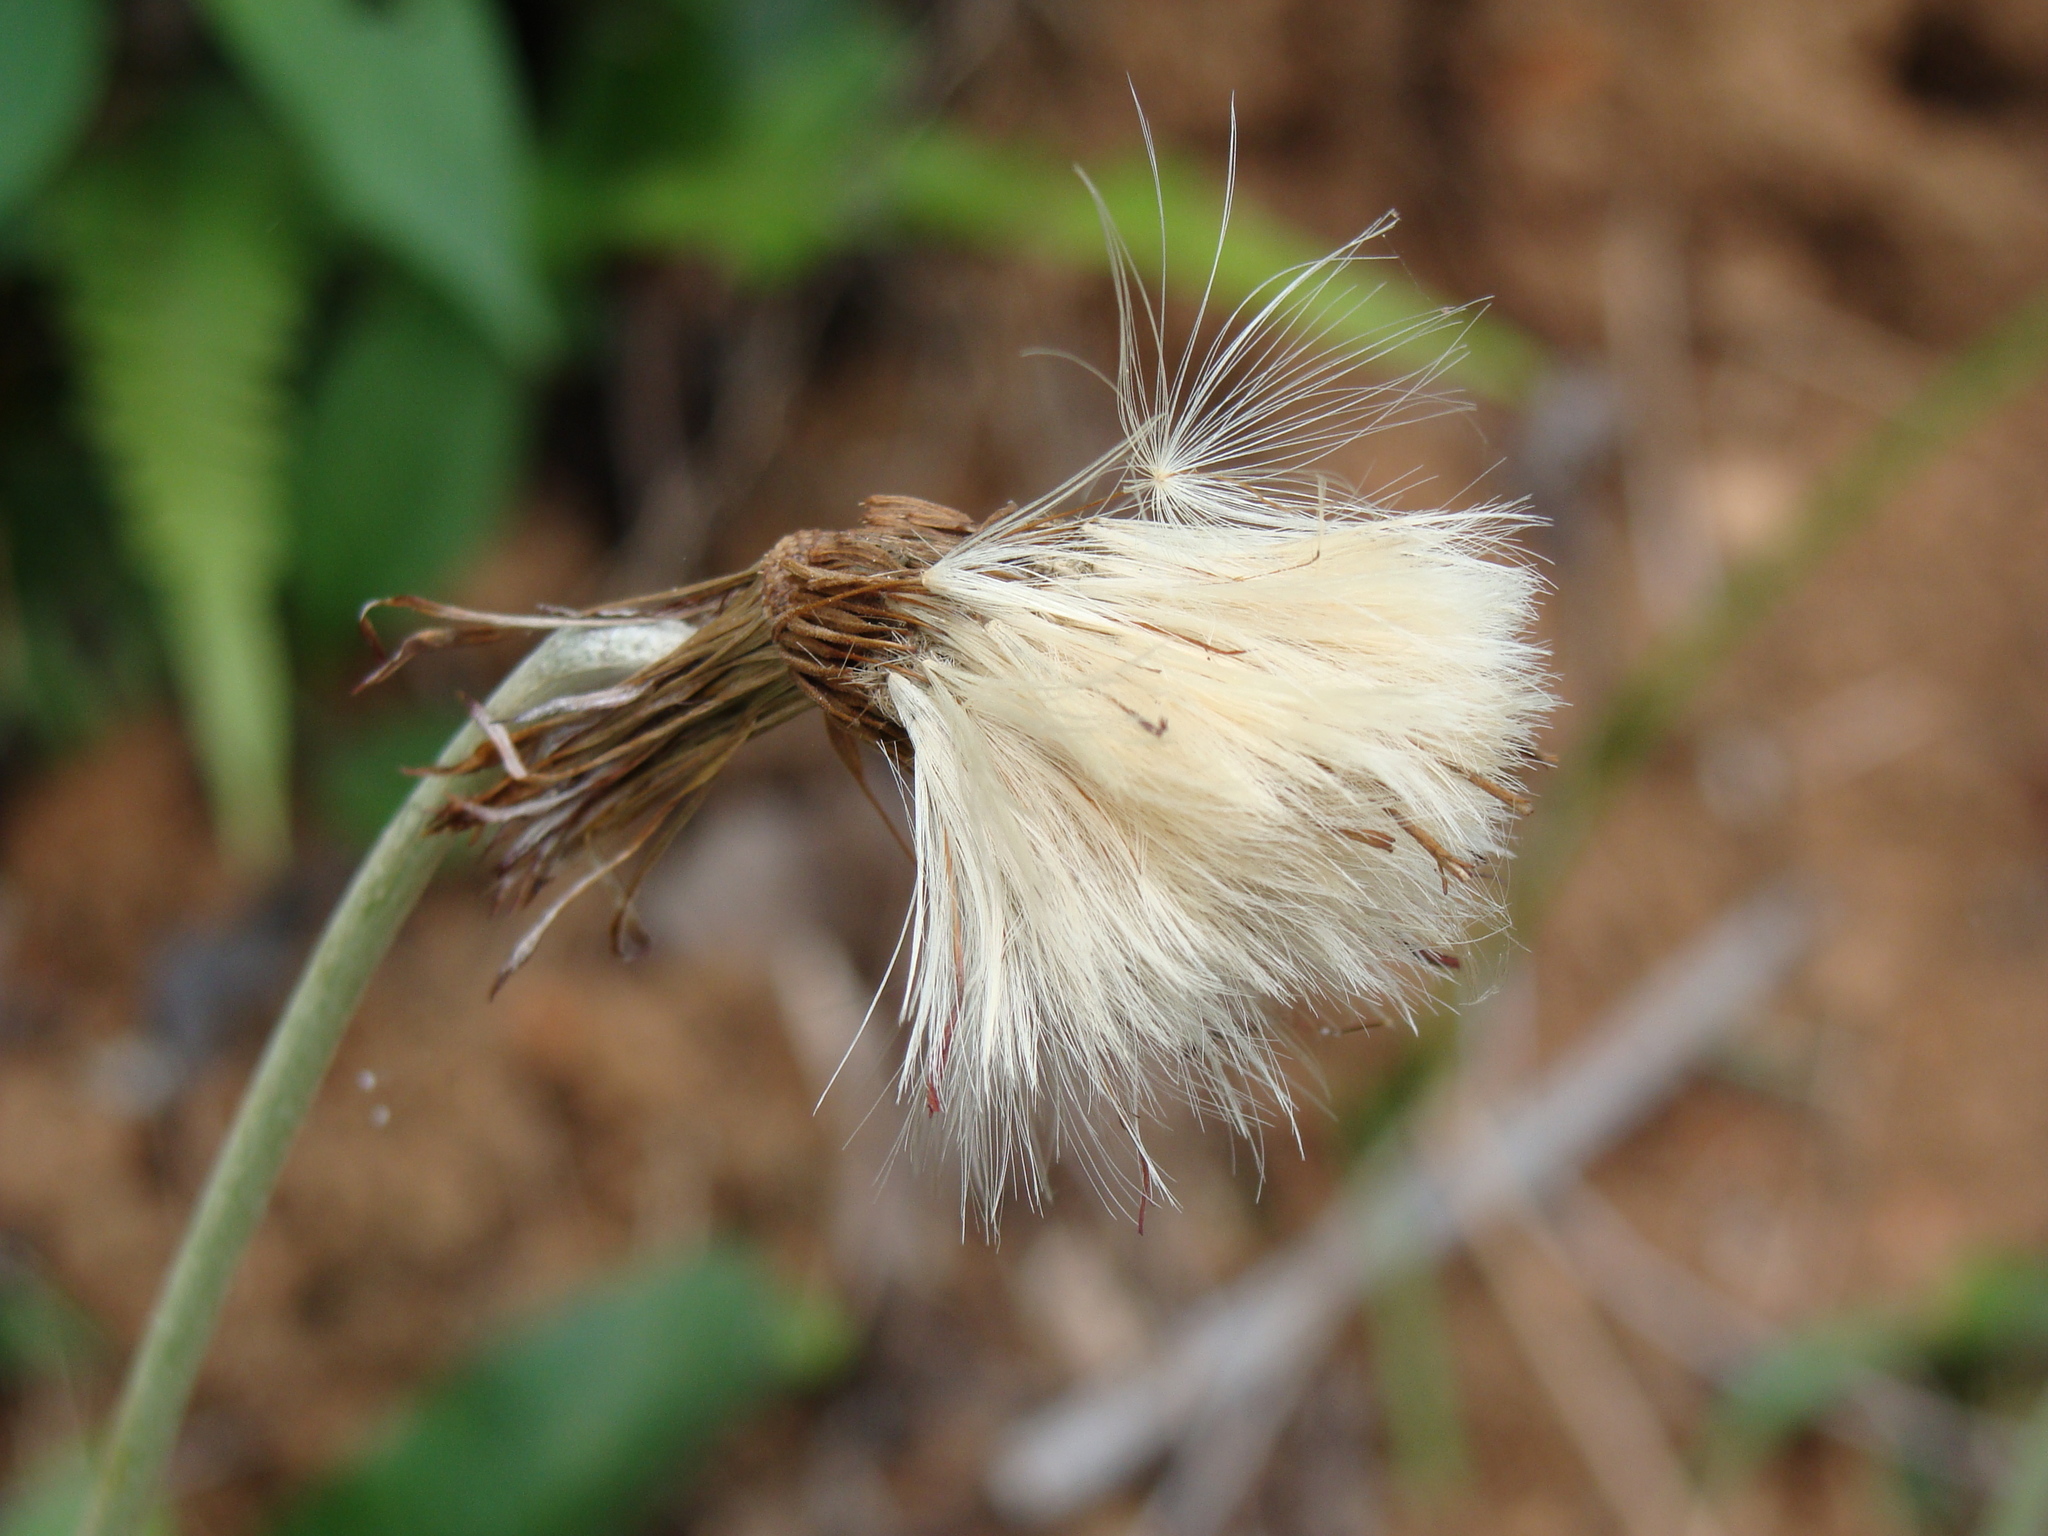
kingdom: Plantae
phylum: Tracheophyta
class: Magnoliopsida
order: Asterales
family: Asteraceae
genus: Chaptalia
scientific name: Chaptalia nutans
